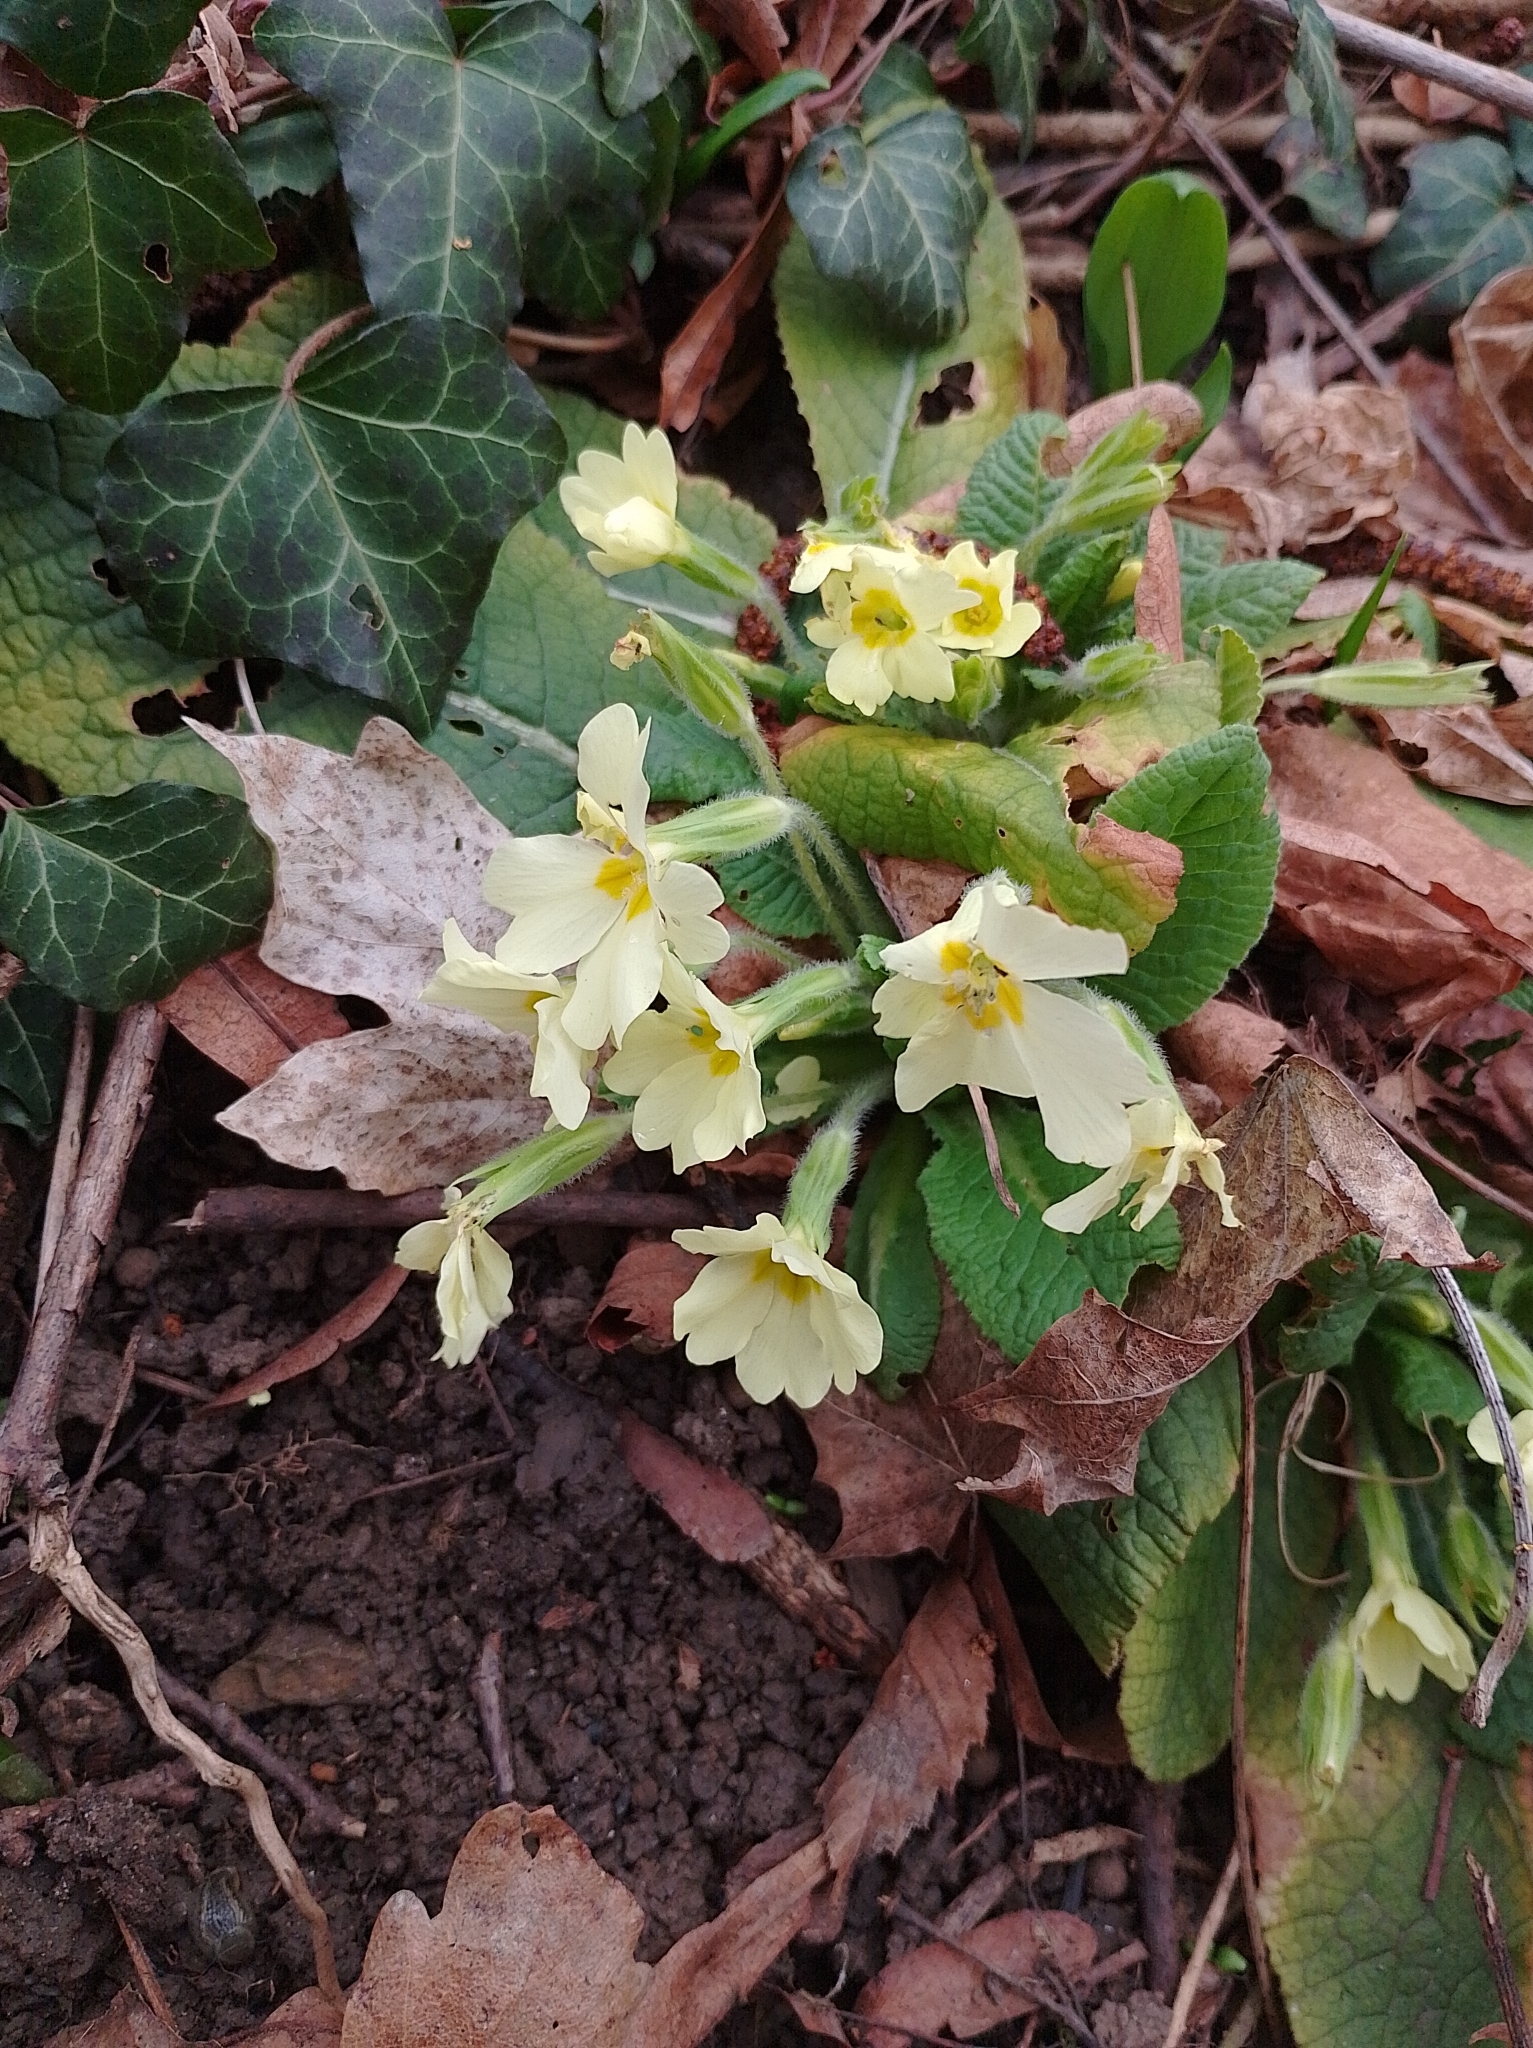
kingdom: Plantae
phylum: Tracheophyta
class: Magnoliopsida
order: Ericales
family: Primulaceae
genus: Primula
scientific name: Primula vulgaris
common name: Primrose
